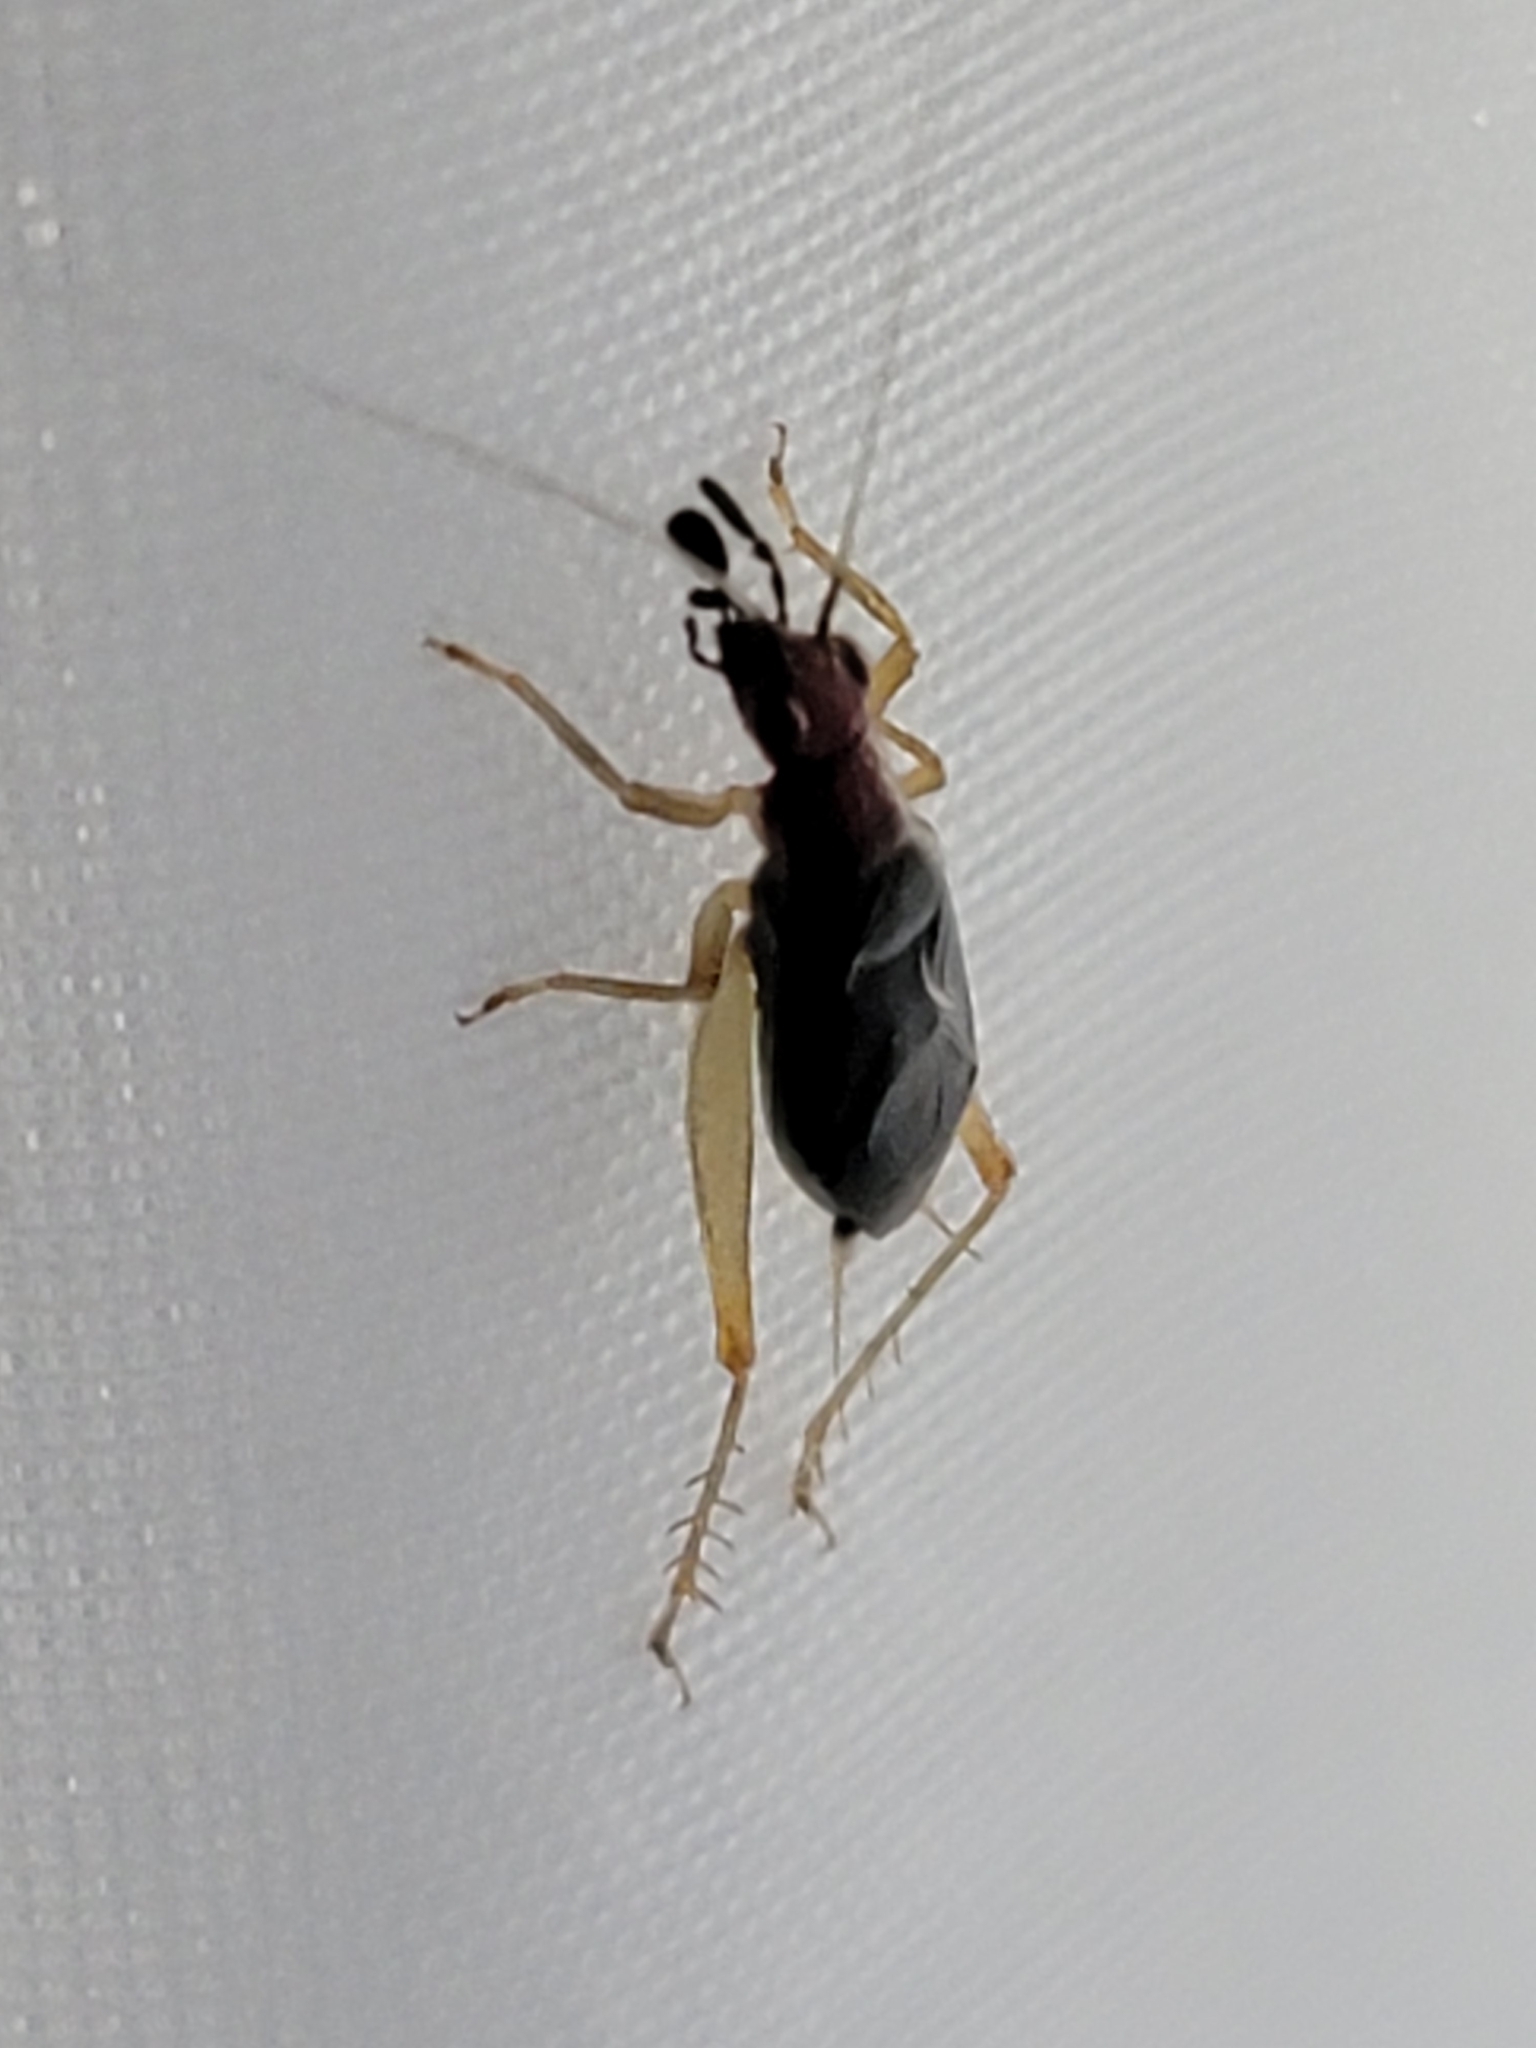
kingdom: Animalia
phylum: Arthropoda
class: Insecta
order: Orthoptera
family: Trigonidiidae
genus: Phyllopalpus
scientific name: Phyllopalpus pulchellus
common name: Handsome trig
